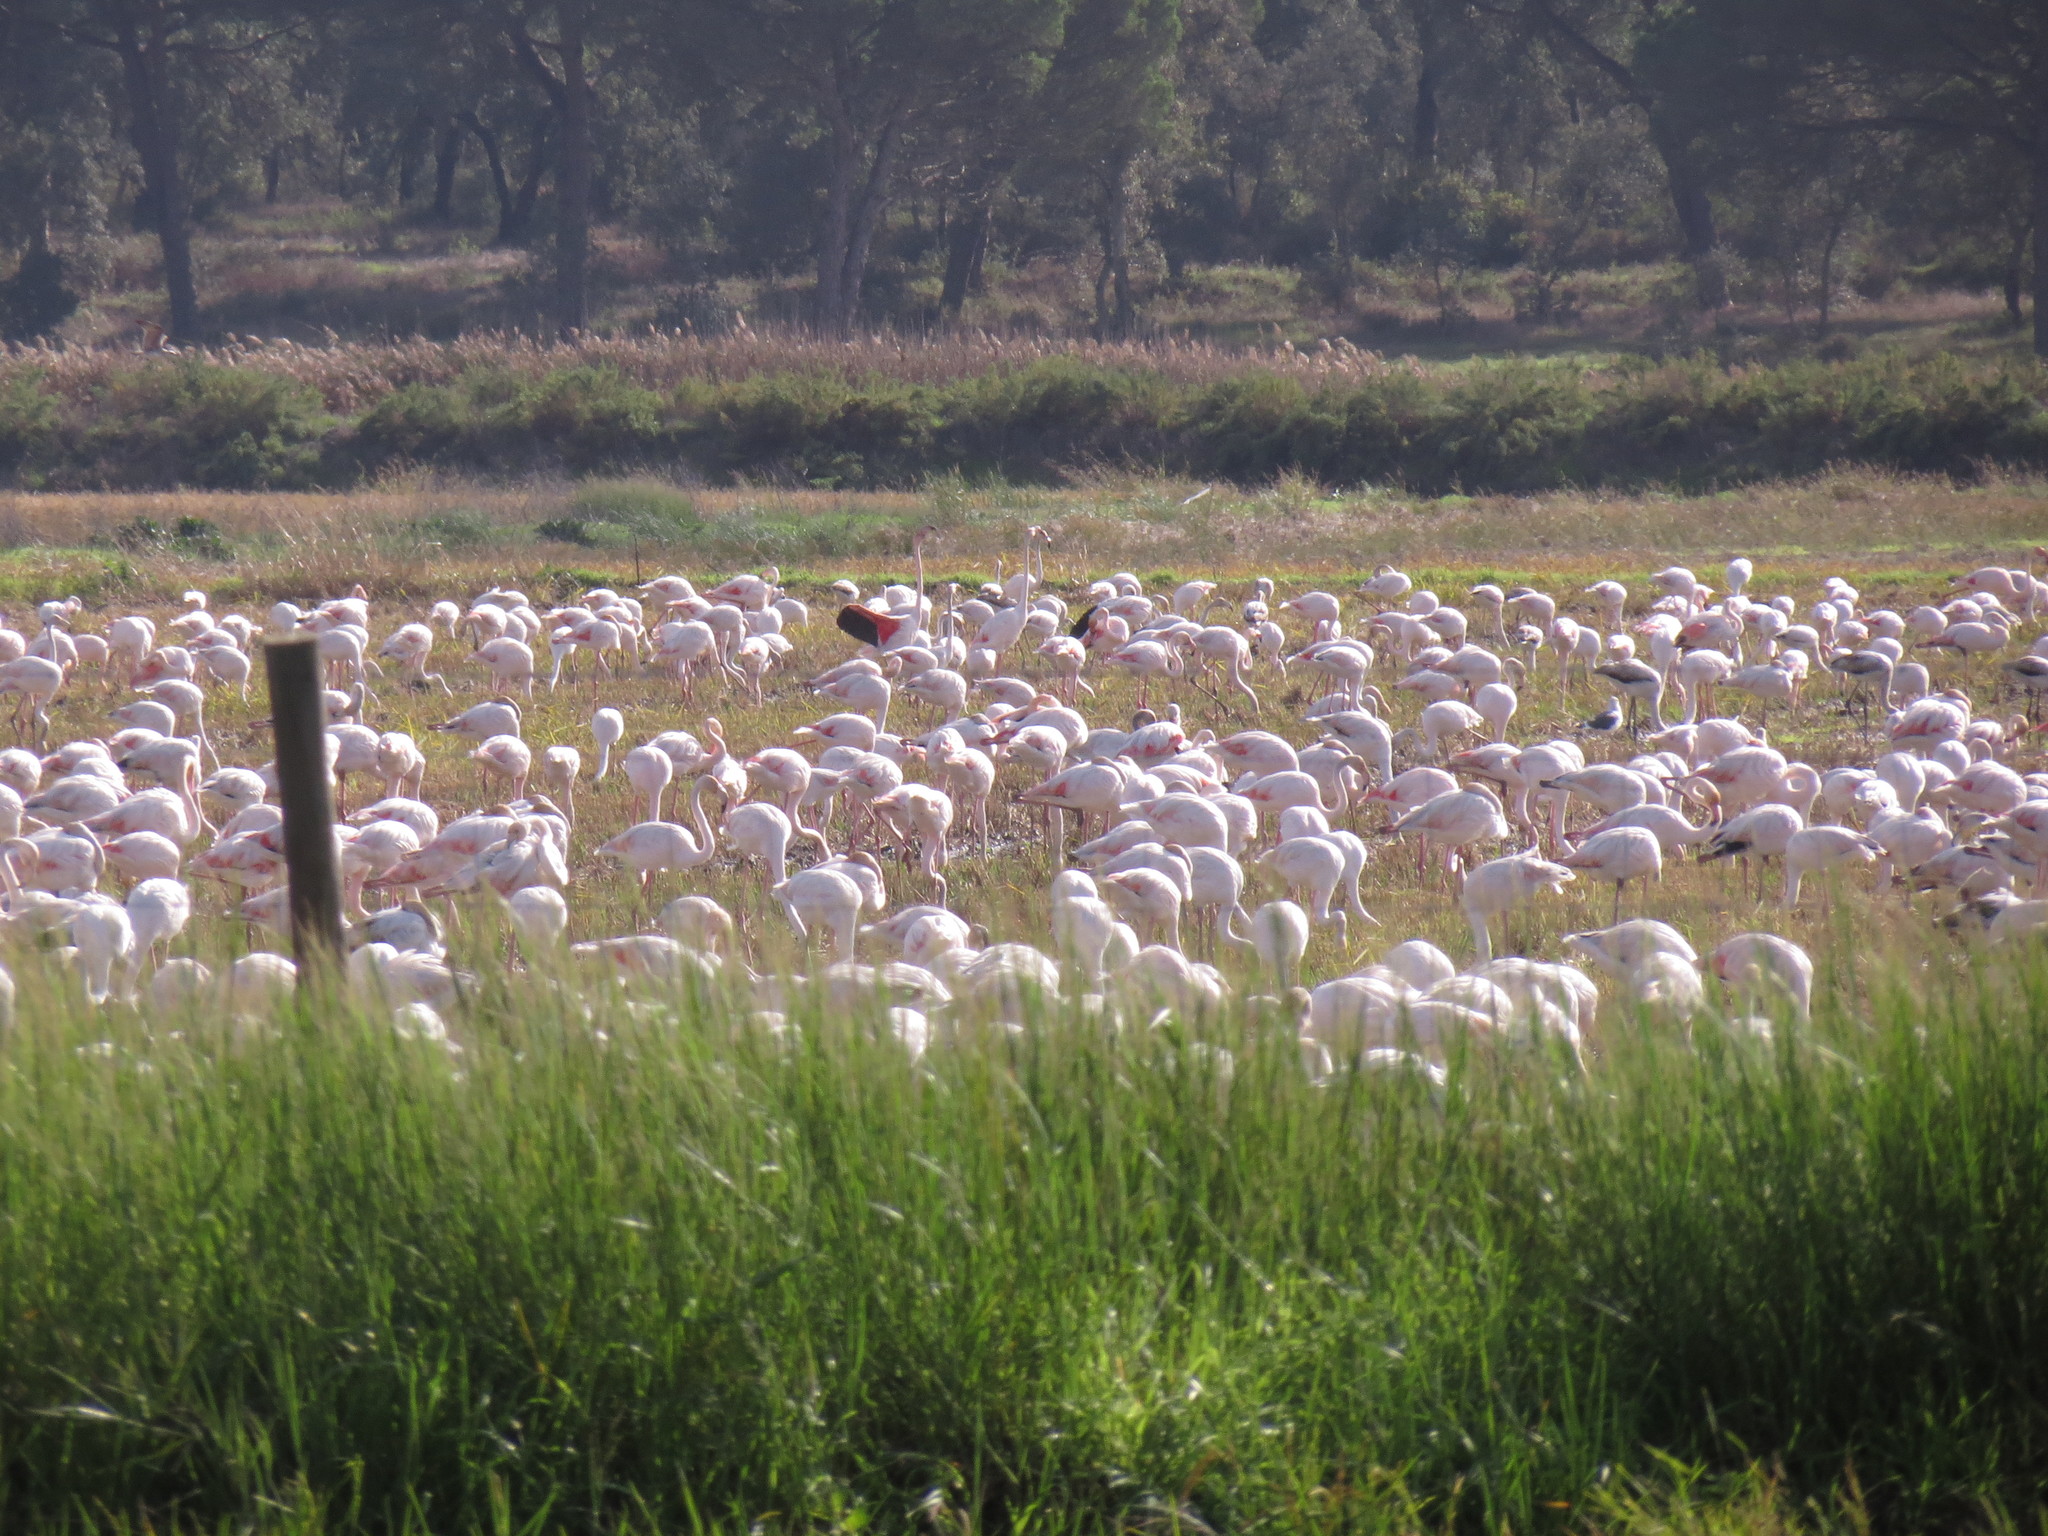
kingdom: Animalia
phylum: Chordata
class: Aves
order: Phoenicopteriformes
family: Phoenicopteridae
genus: Phoenicopterus
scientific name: Phoenicopterus roseus
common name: Greater flamingo
